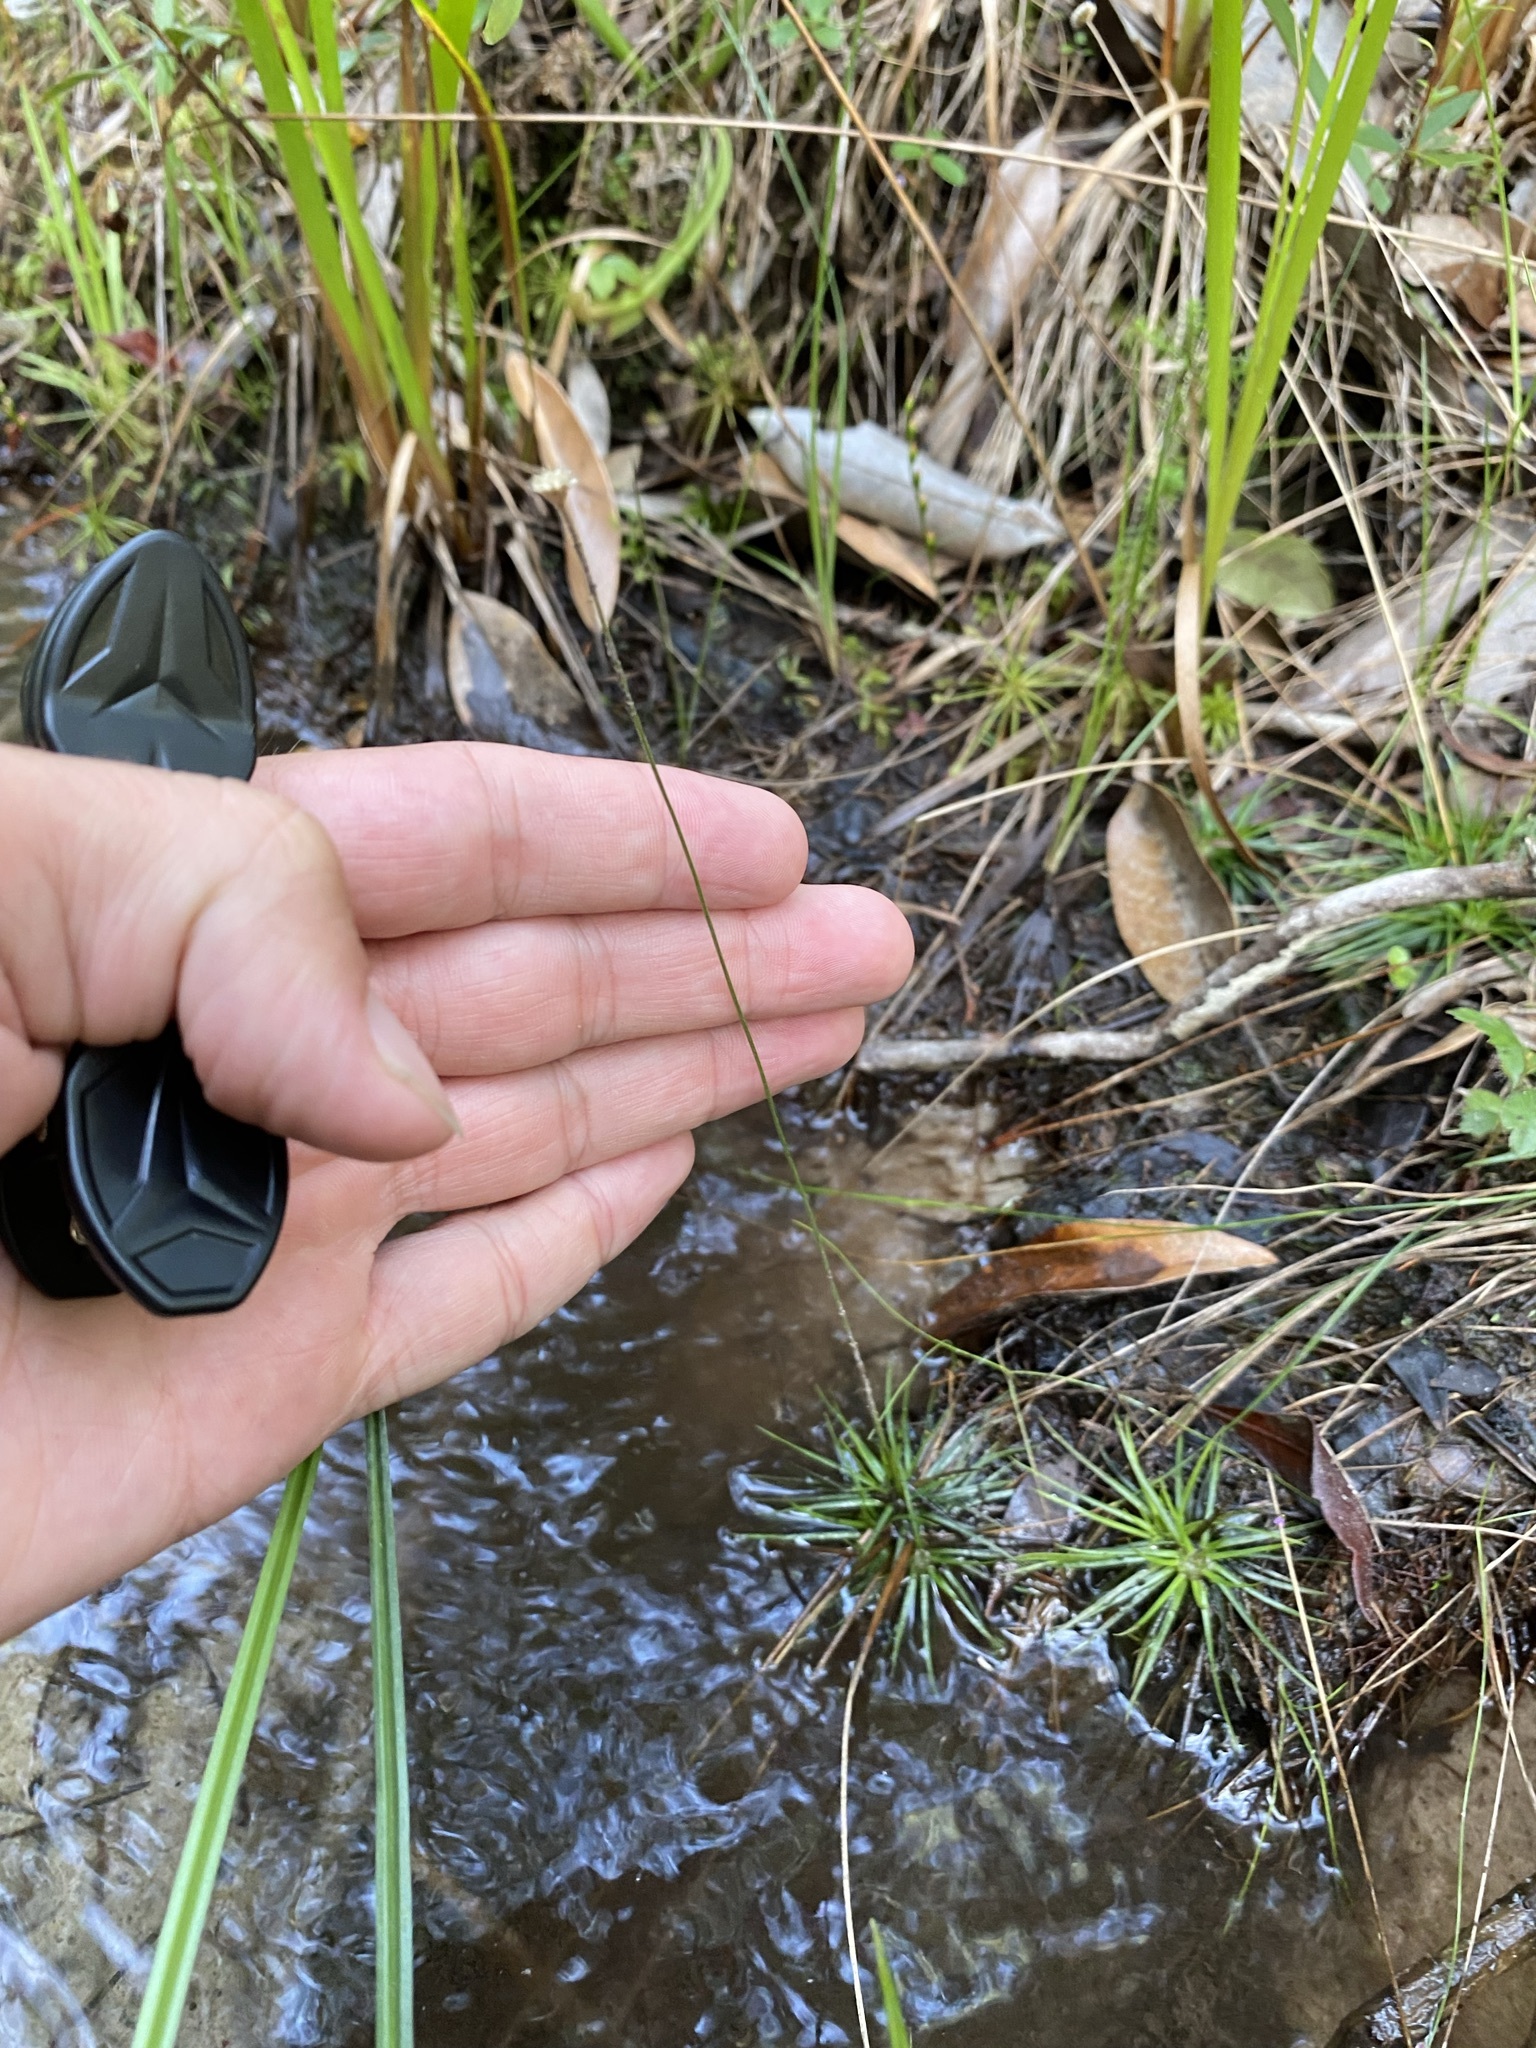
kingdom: Plantae
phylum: Tracheophyta
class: Liliopsida
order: Poales
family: Eriocaulaceae
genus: Syngonanthus
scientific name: Syngonanthus flavidulus
